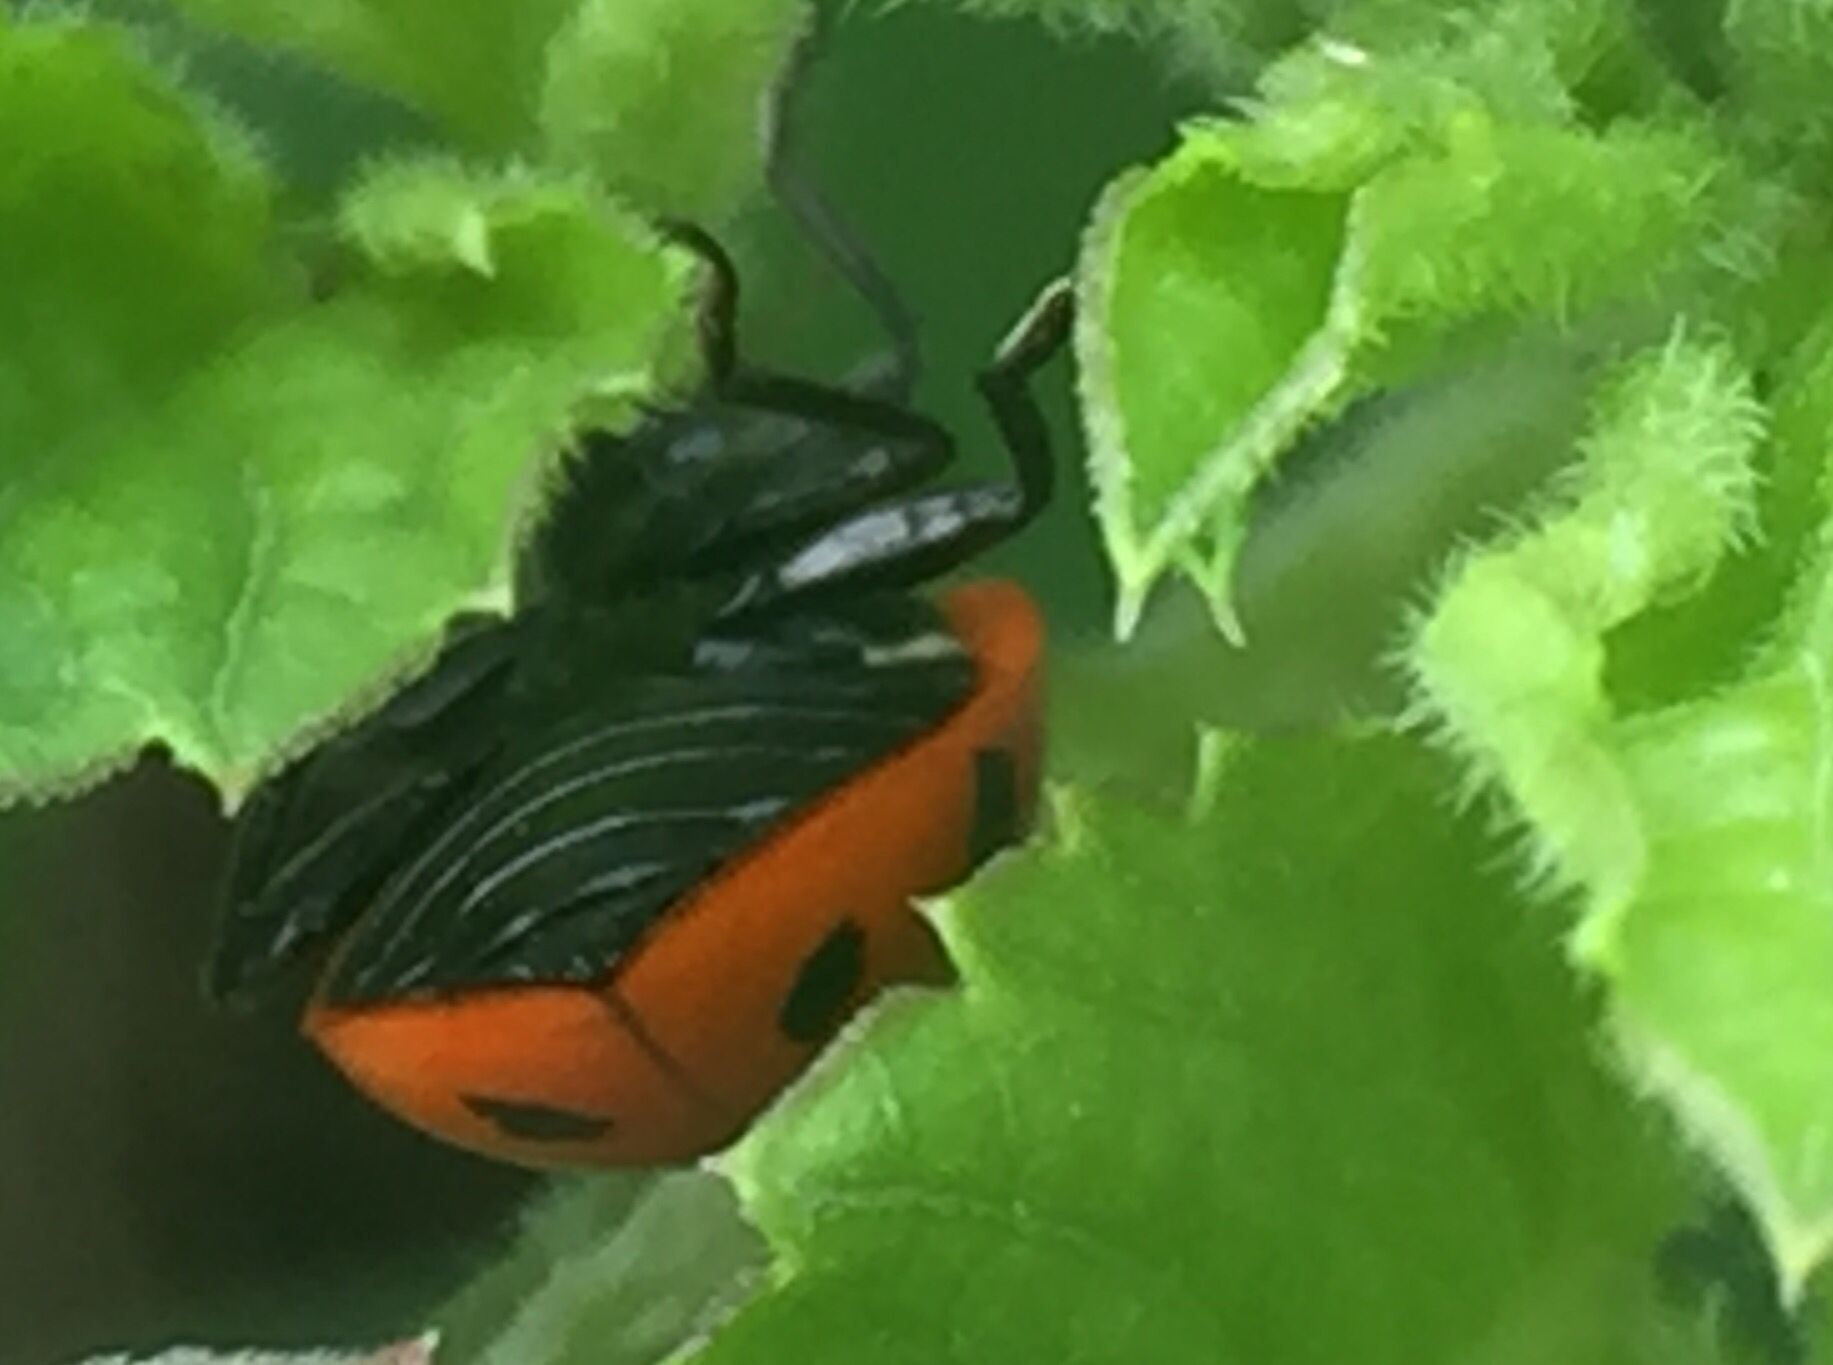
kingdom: Animalia
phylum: Arthropoda
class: Insecta
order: Coleoptera
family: Coccinellidae
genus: Hippodamia
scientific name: Hippodamia convergens
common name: Convergent lady beetle
